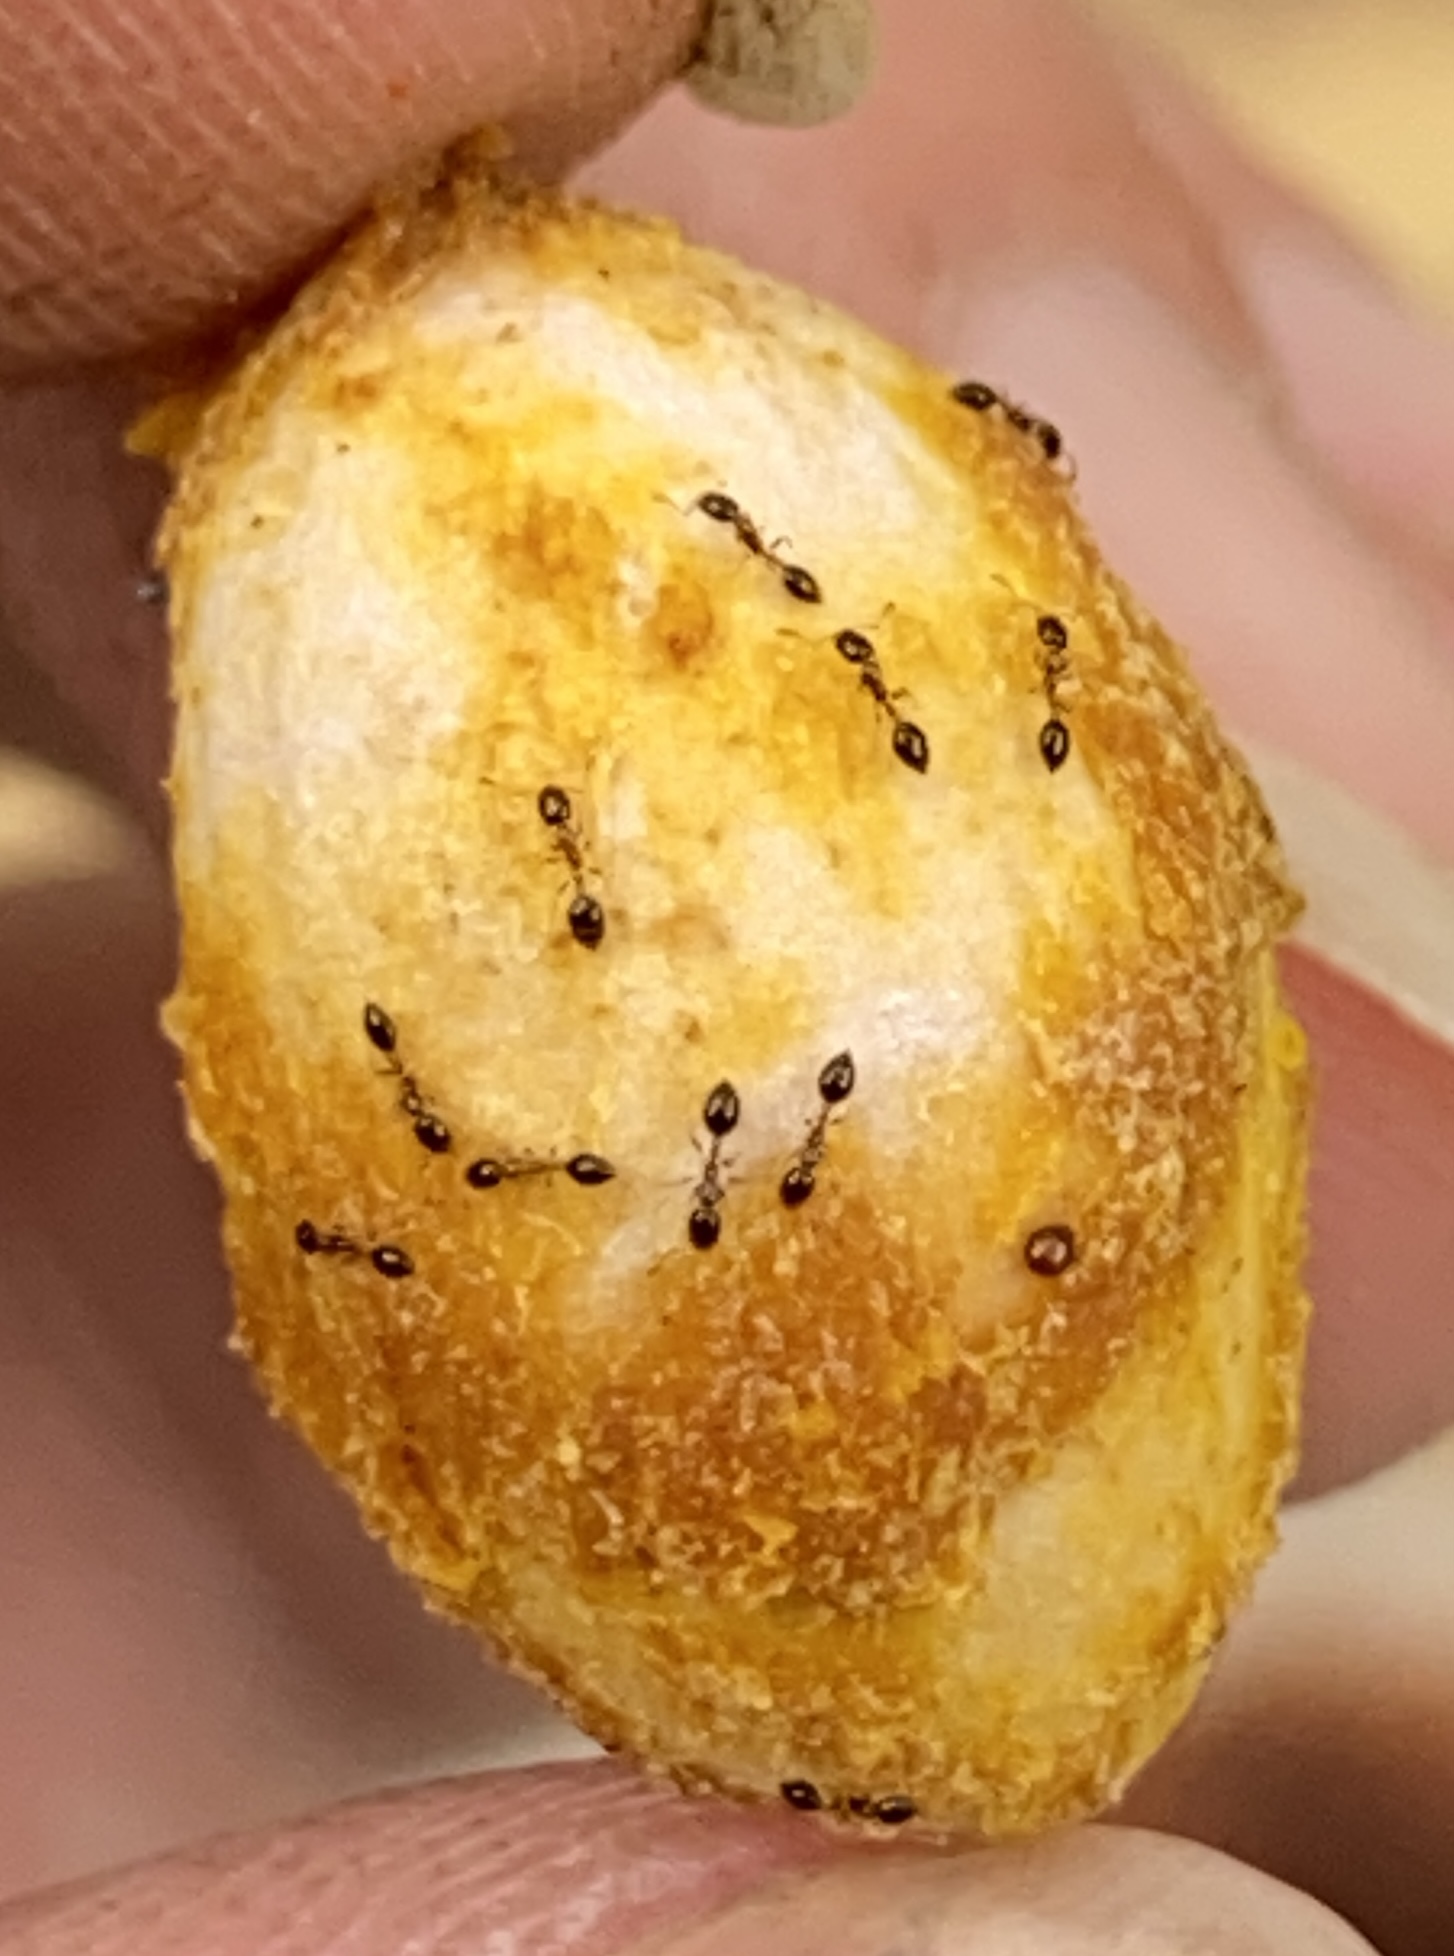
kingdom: Animalia
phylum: Arthropoda
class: Insecta
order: Hymenoptera
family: Formicidae
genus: Monomorium
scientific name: Monomorium floricola
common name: Bicolored trailing ant
